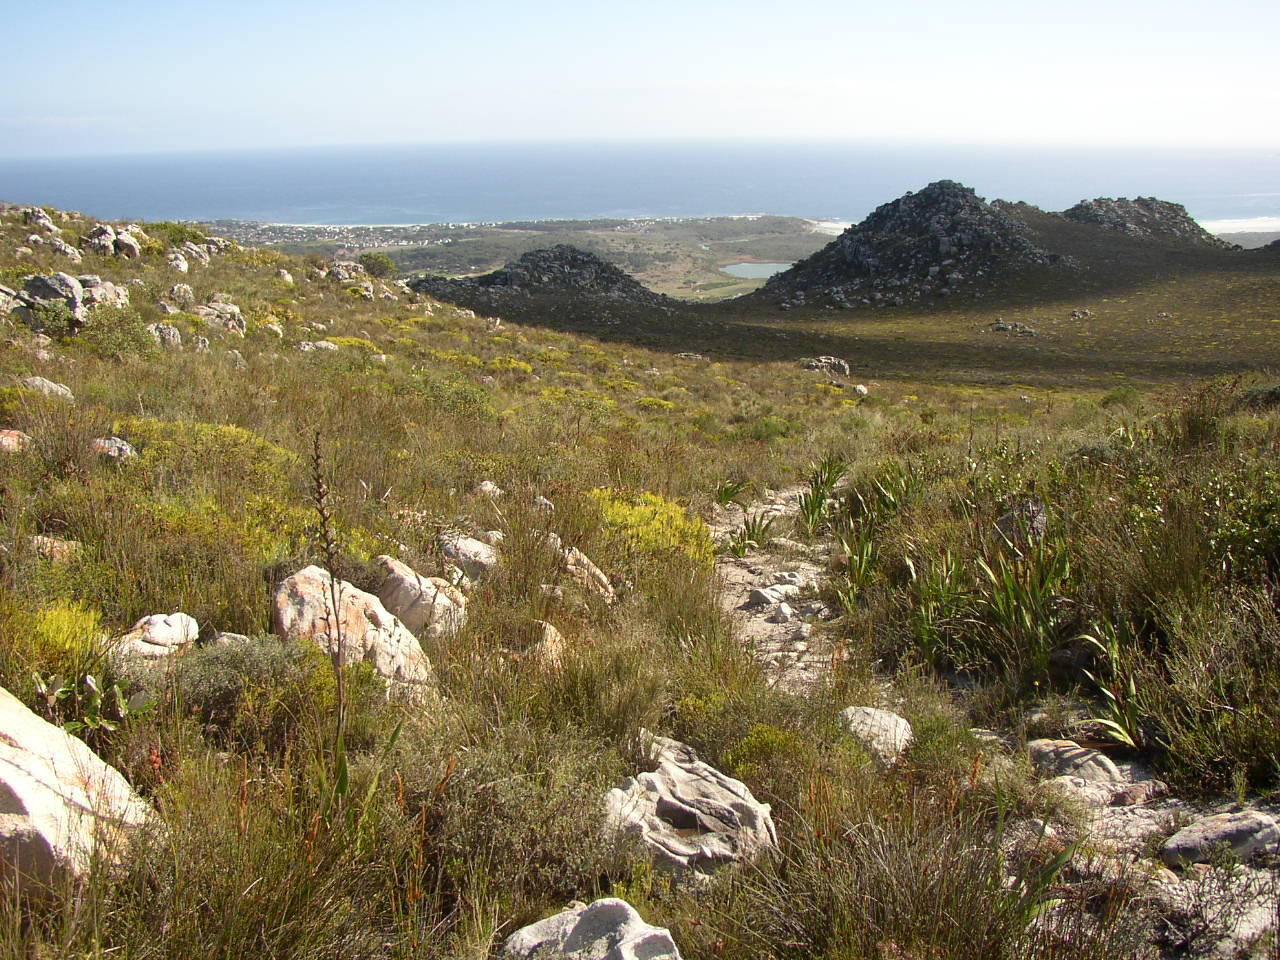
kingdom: Plantae
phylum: Tracheophyta
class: Magnoliopsida
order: Proteales
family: Proteaceae
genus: Leucadendron
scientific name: Leucadendron salignum
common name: Common sunshine conebush
